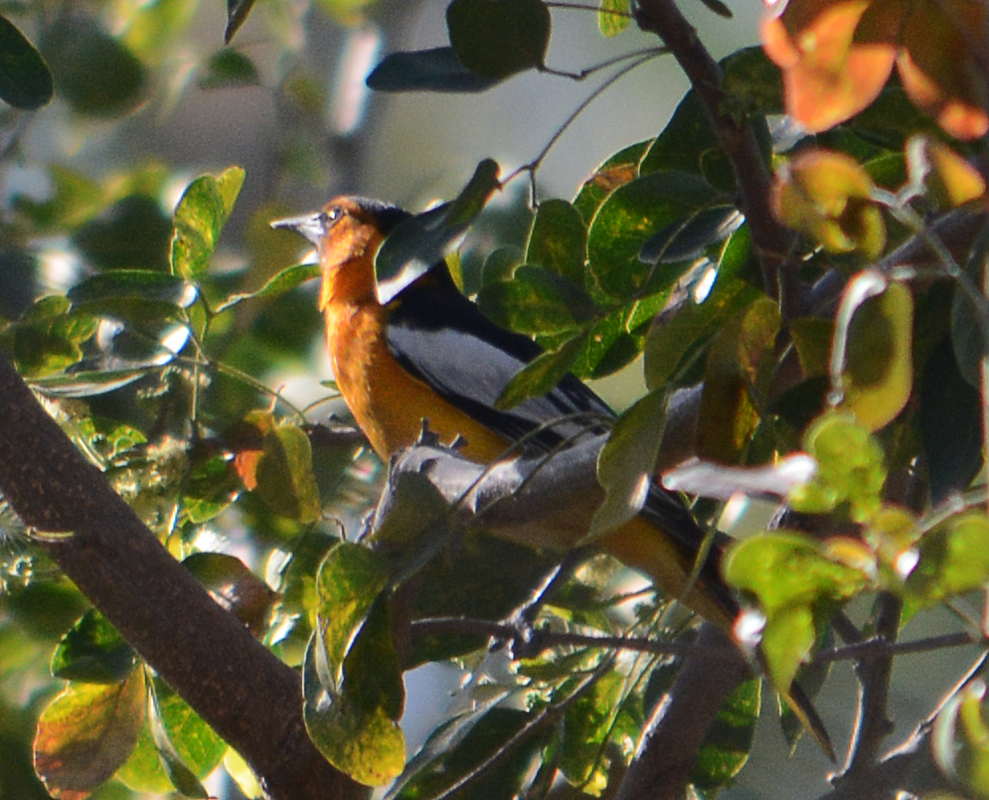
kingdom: Animalia
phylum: Chordata
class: Aves
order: Passeriformes
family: Icteridae
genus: Icterus
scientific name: Icterus bullockii
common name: Bullock's oriole
